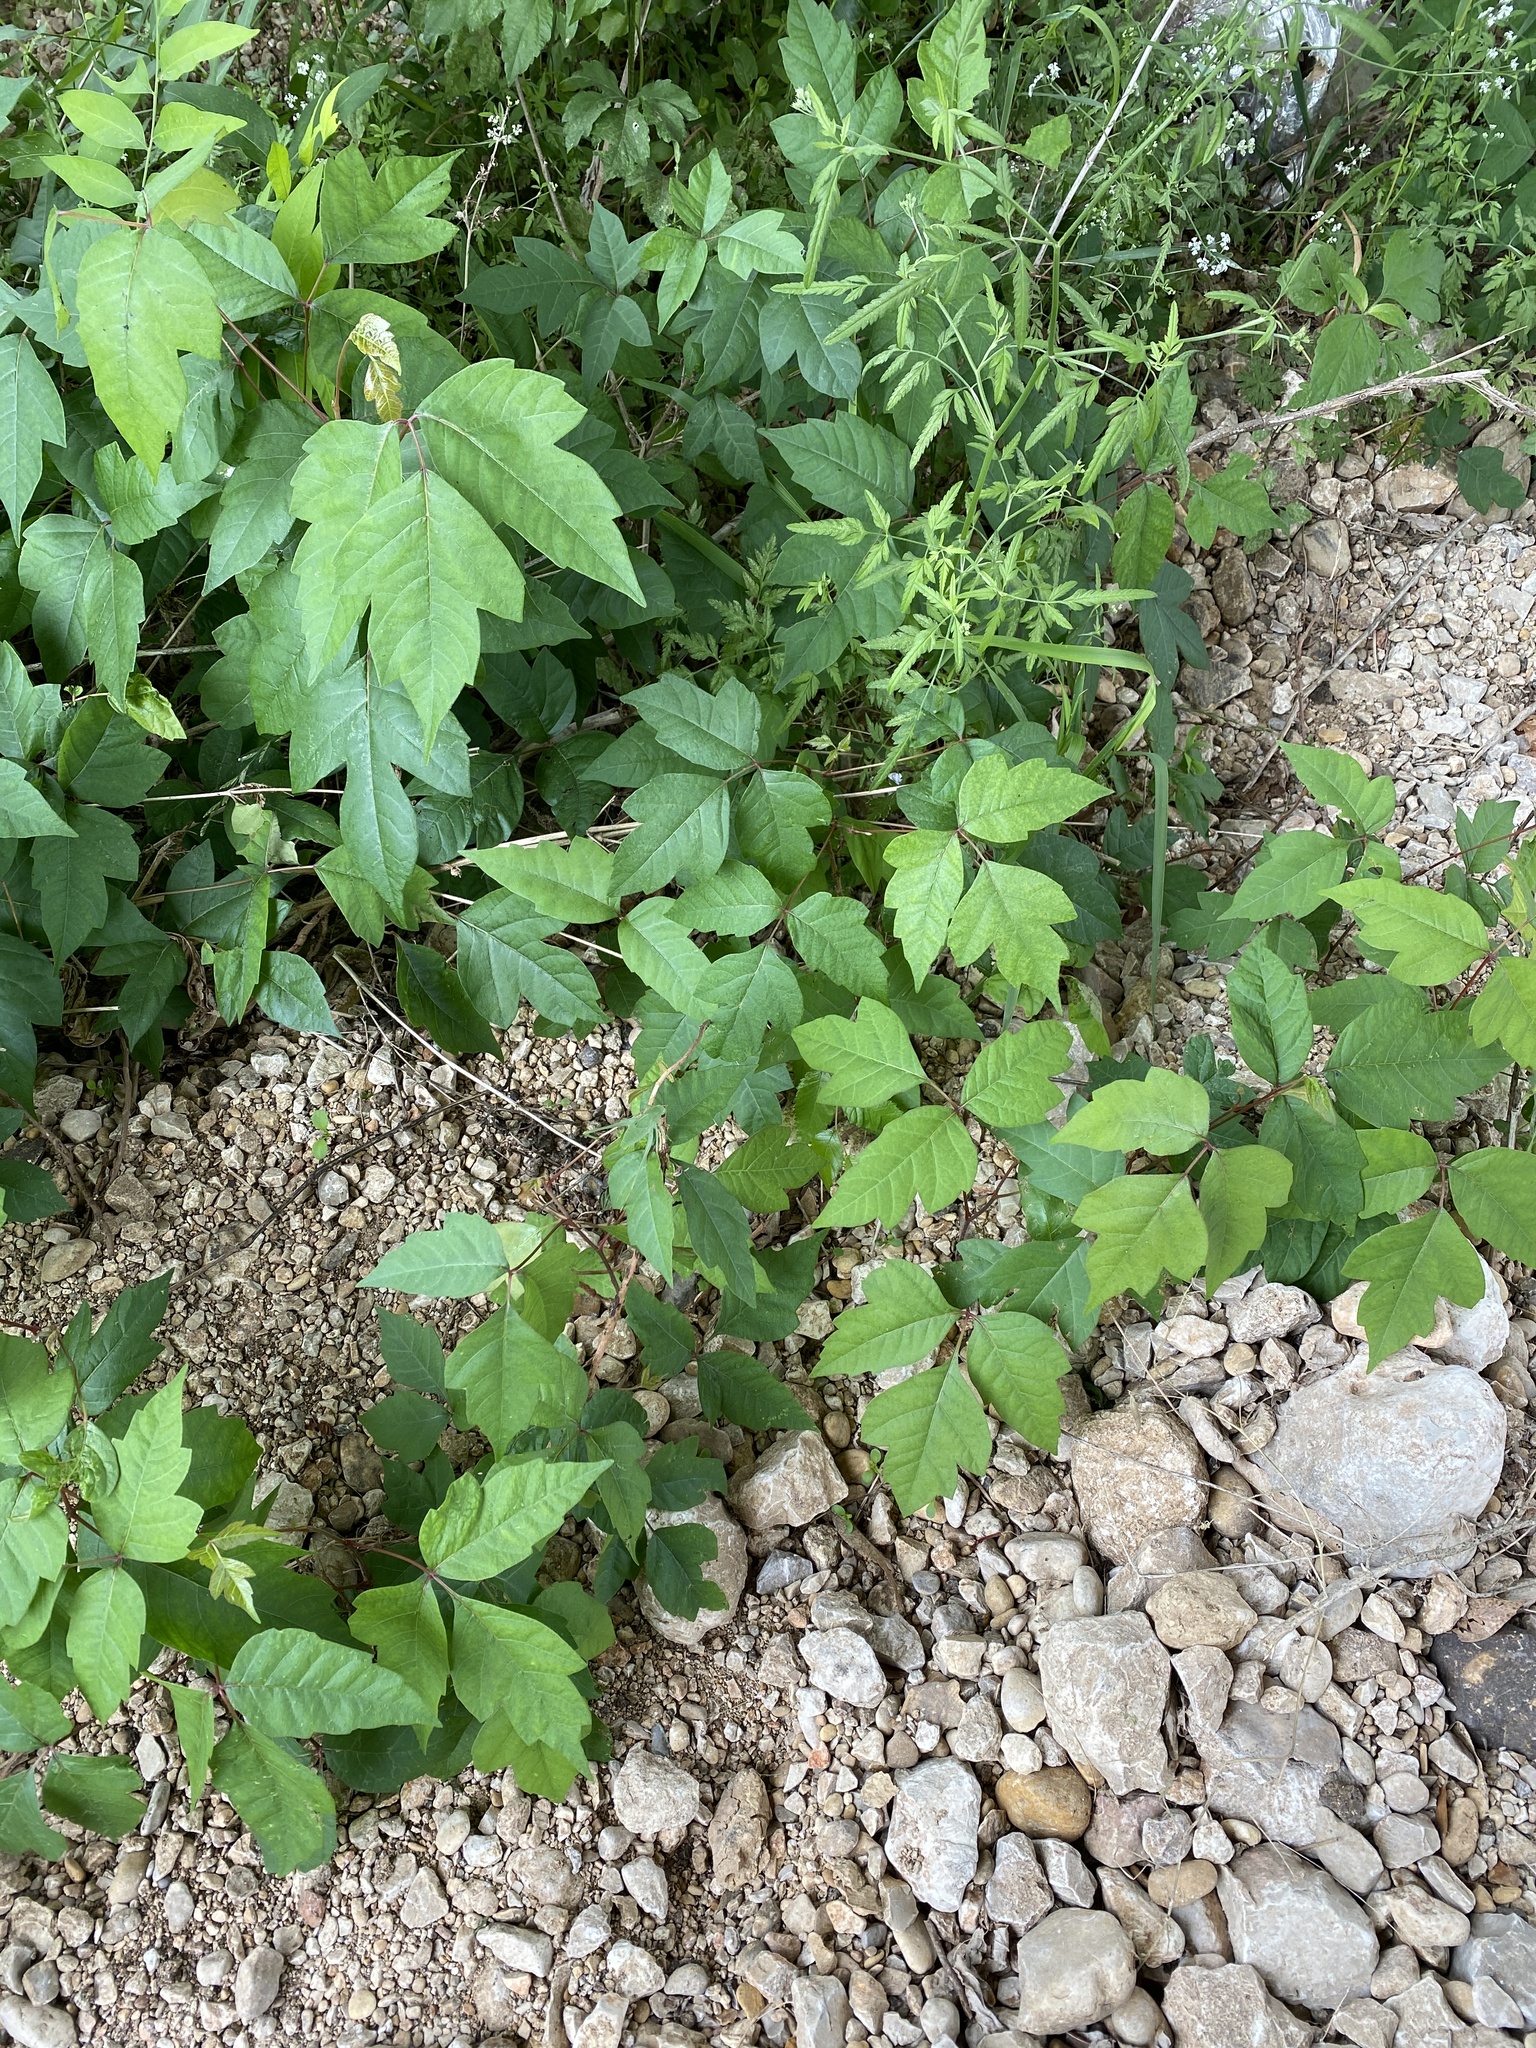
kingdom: Plantae
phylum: Tracheophyta
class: Magnoliopsida
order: Sapindales
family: Anacardiaceae
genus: Toxicodendron
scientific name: Toxicodendron radicans
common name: Poison ivy
